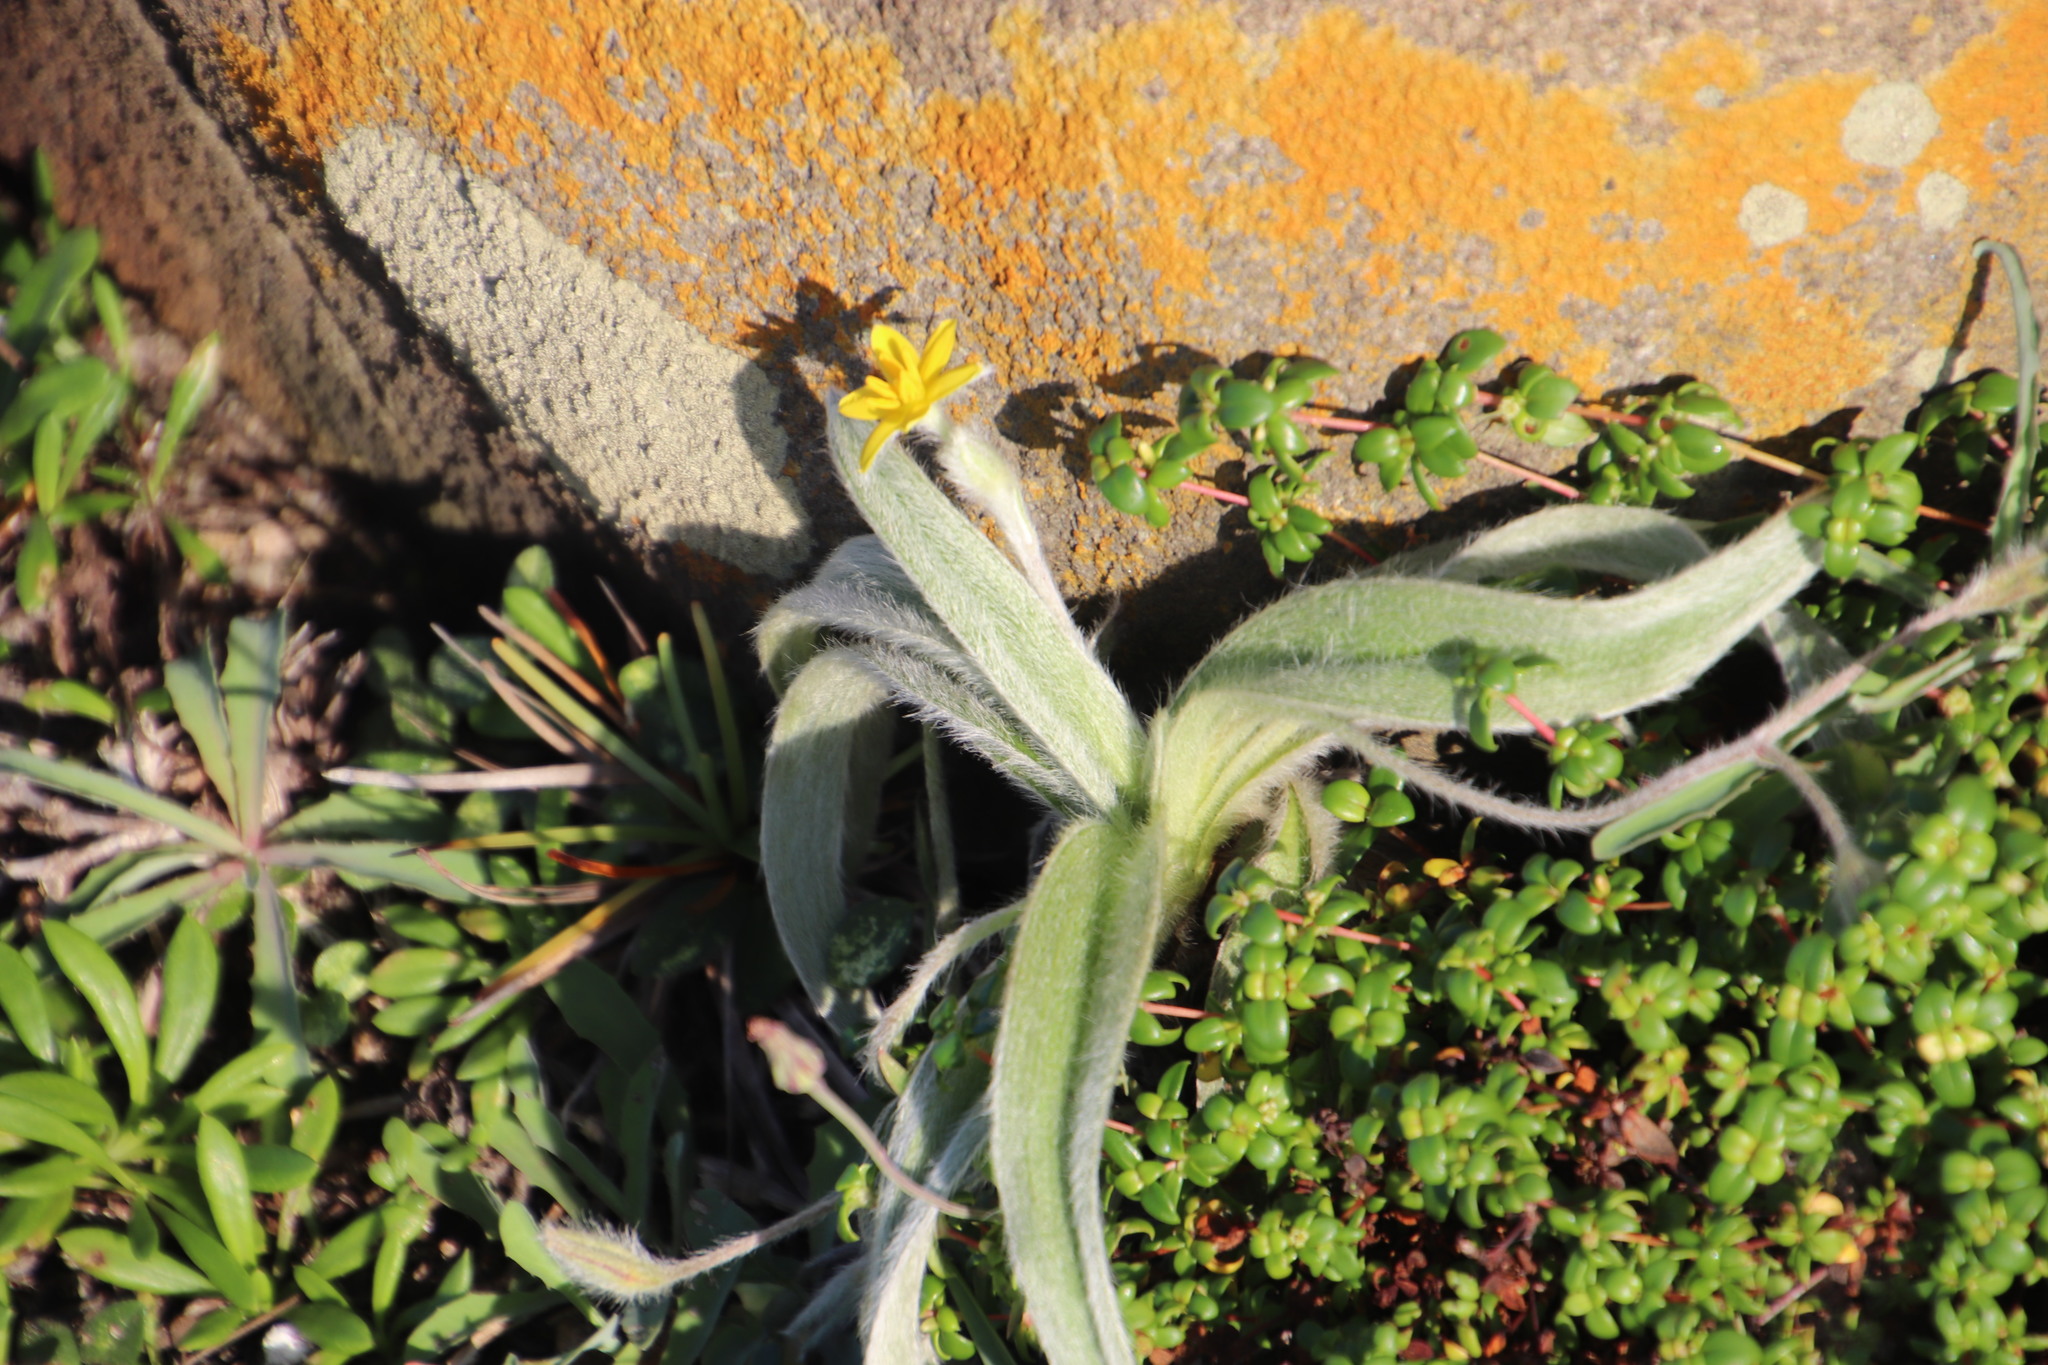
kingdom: Plantae
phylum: Tracheophyta
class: Liliopsida
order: Asparagales
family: Hypoxidaceae
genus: Hypoxis
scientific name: Hypoxis sobolifera
